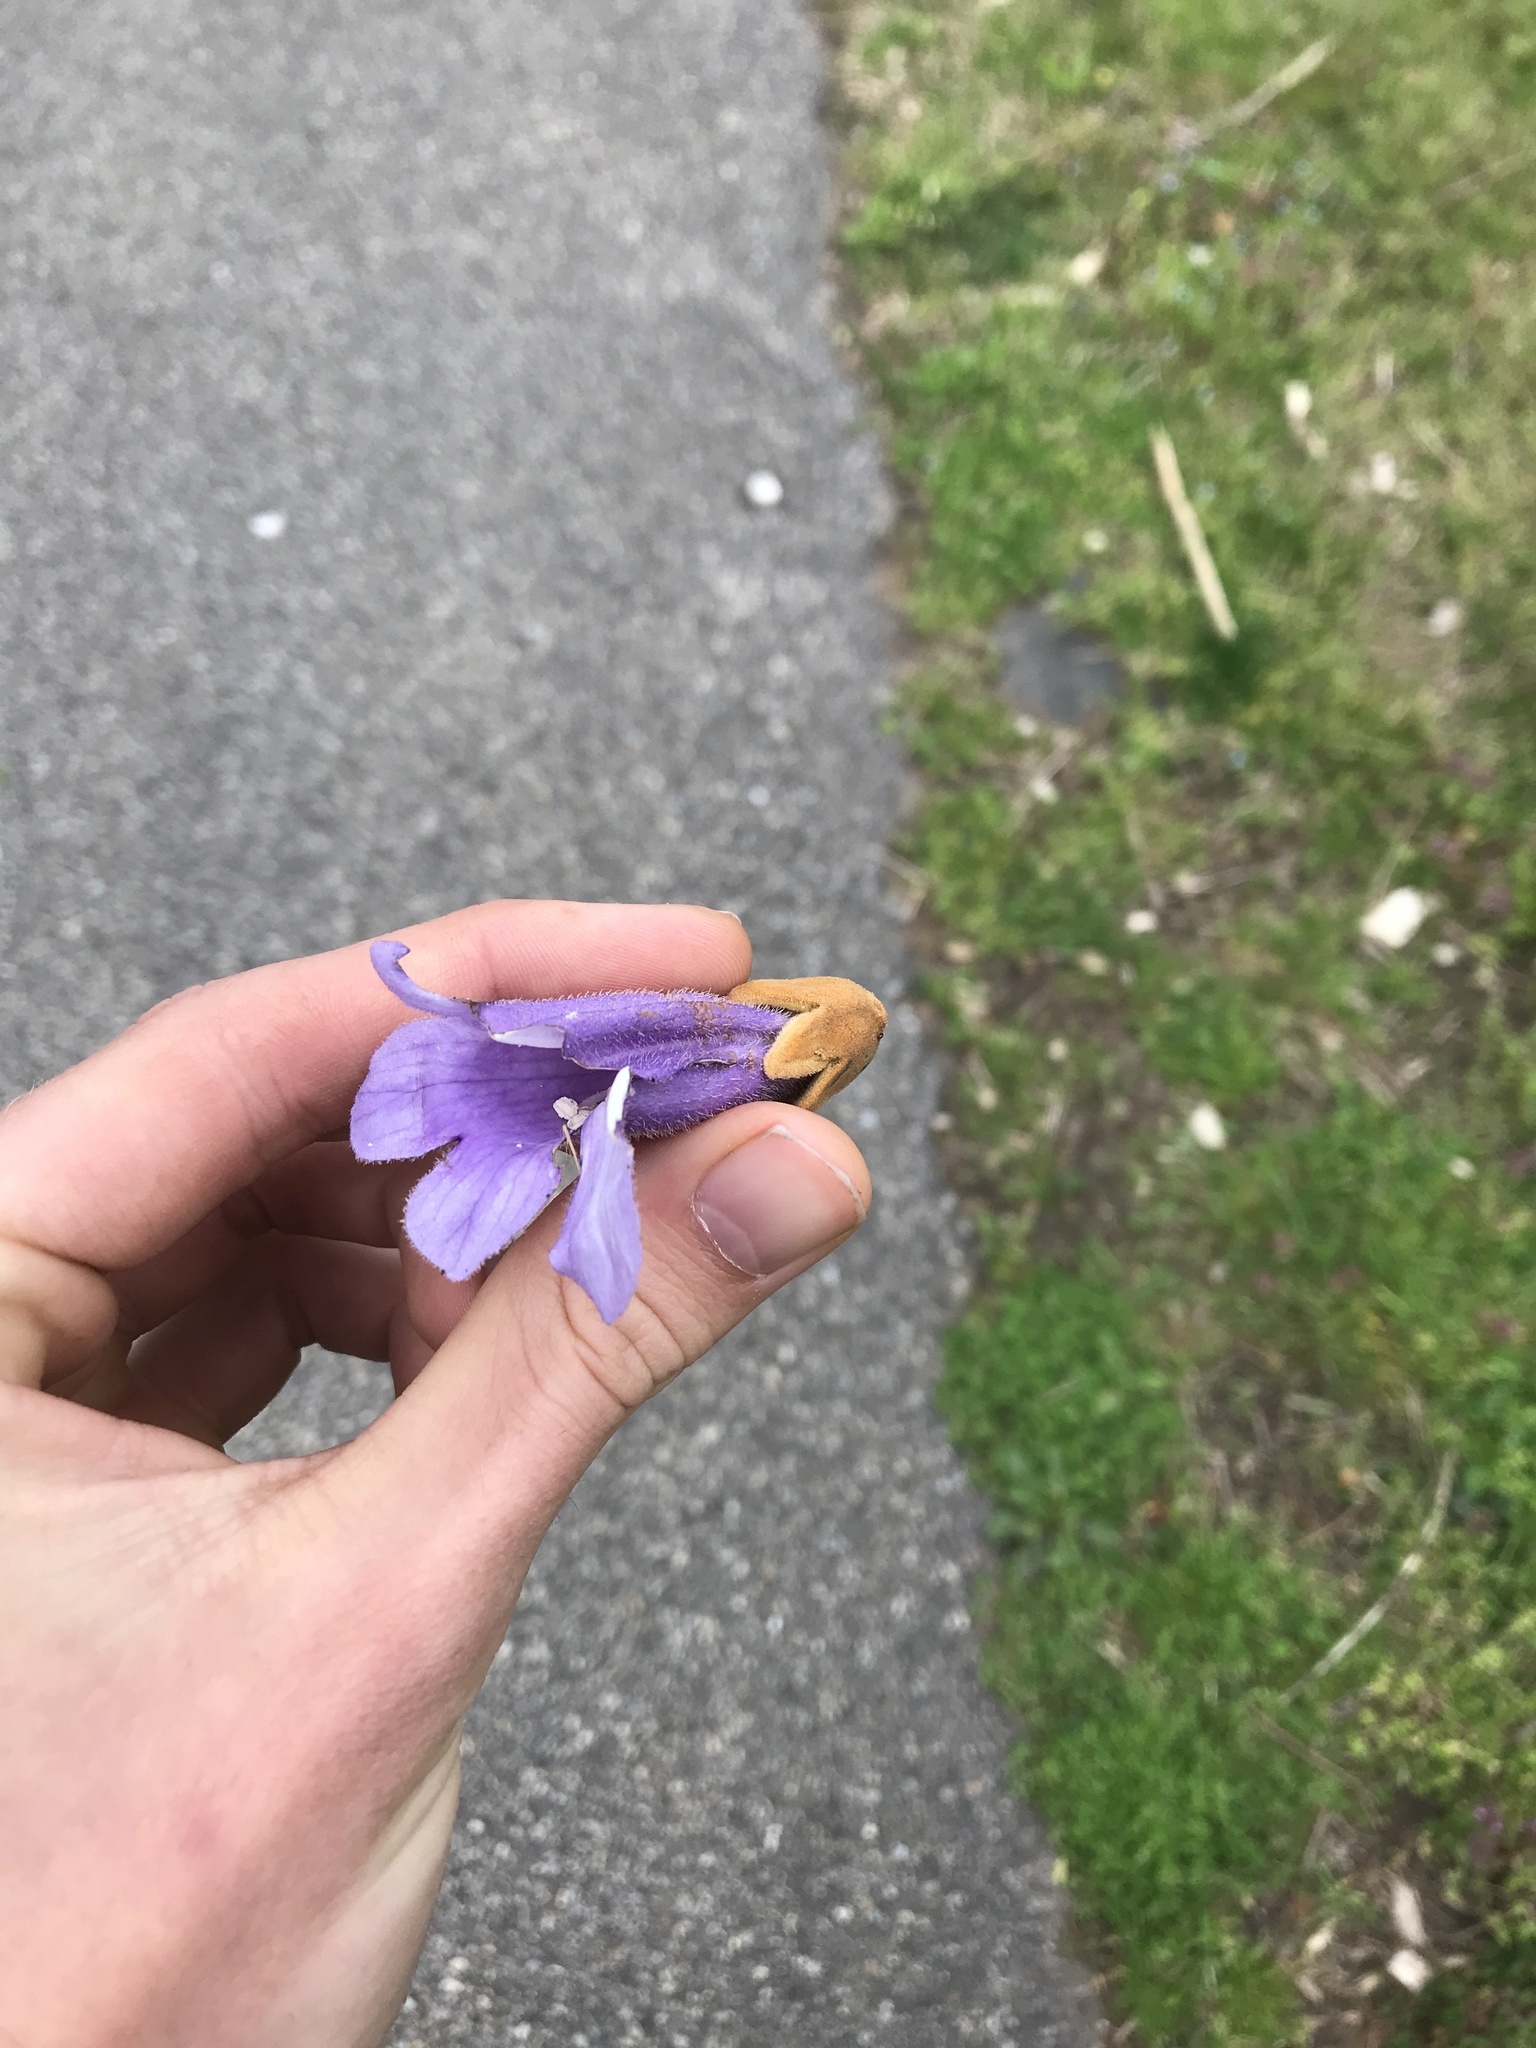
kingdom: Plantae
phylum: Tracheophyta
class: Magnoliopsida
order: Lamiales
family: Paulowniaceae
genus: Paulownia
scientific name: Paulownia tomentosa
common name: Foxglove-tree
